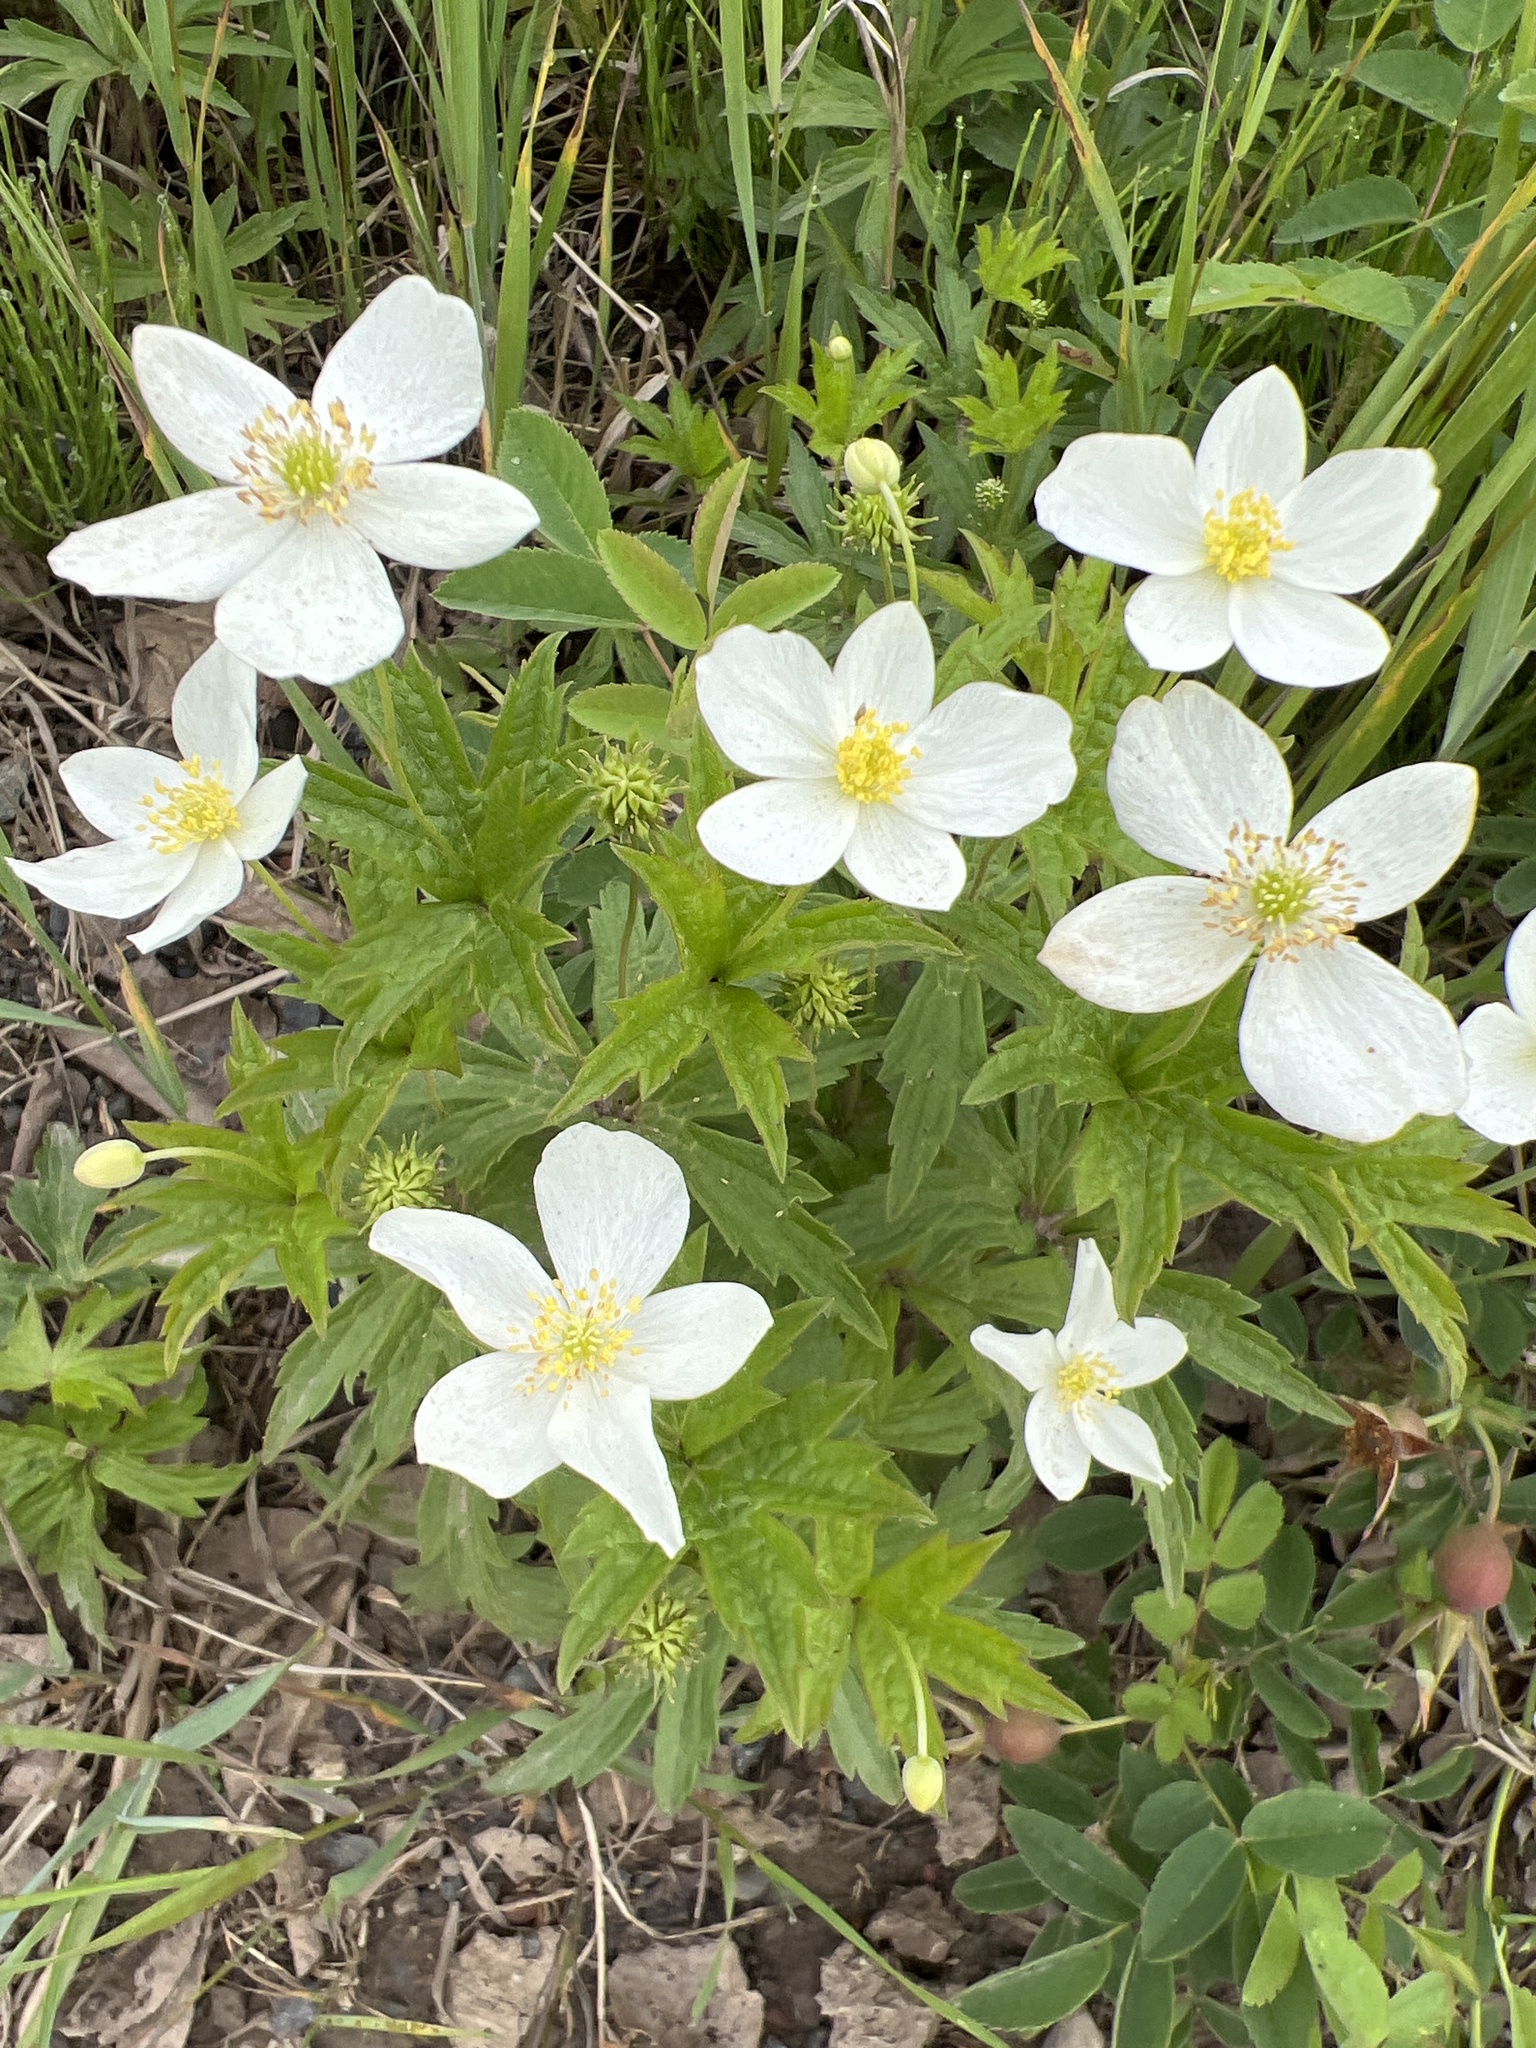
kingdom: Plantae
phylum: Tracheophyta
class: Magnoliopsida
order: Ranunculales
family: Ranunculaceae
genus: Anemonastrum
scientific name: Anemonastrum canadense
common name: Canada anemone
